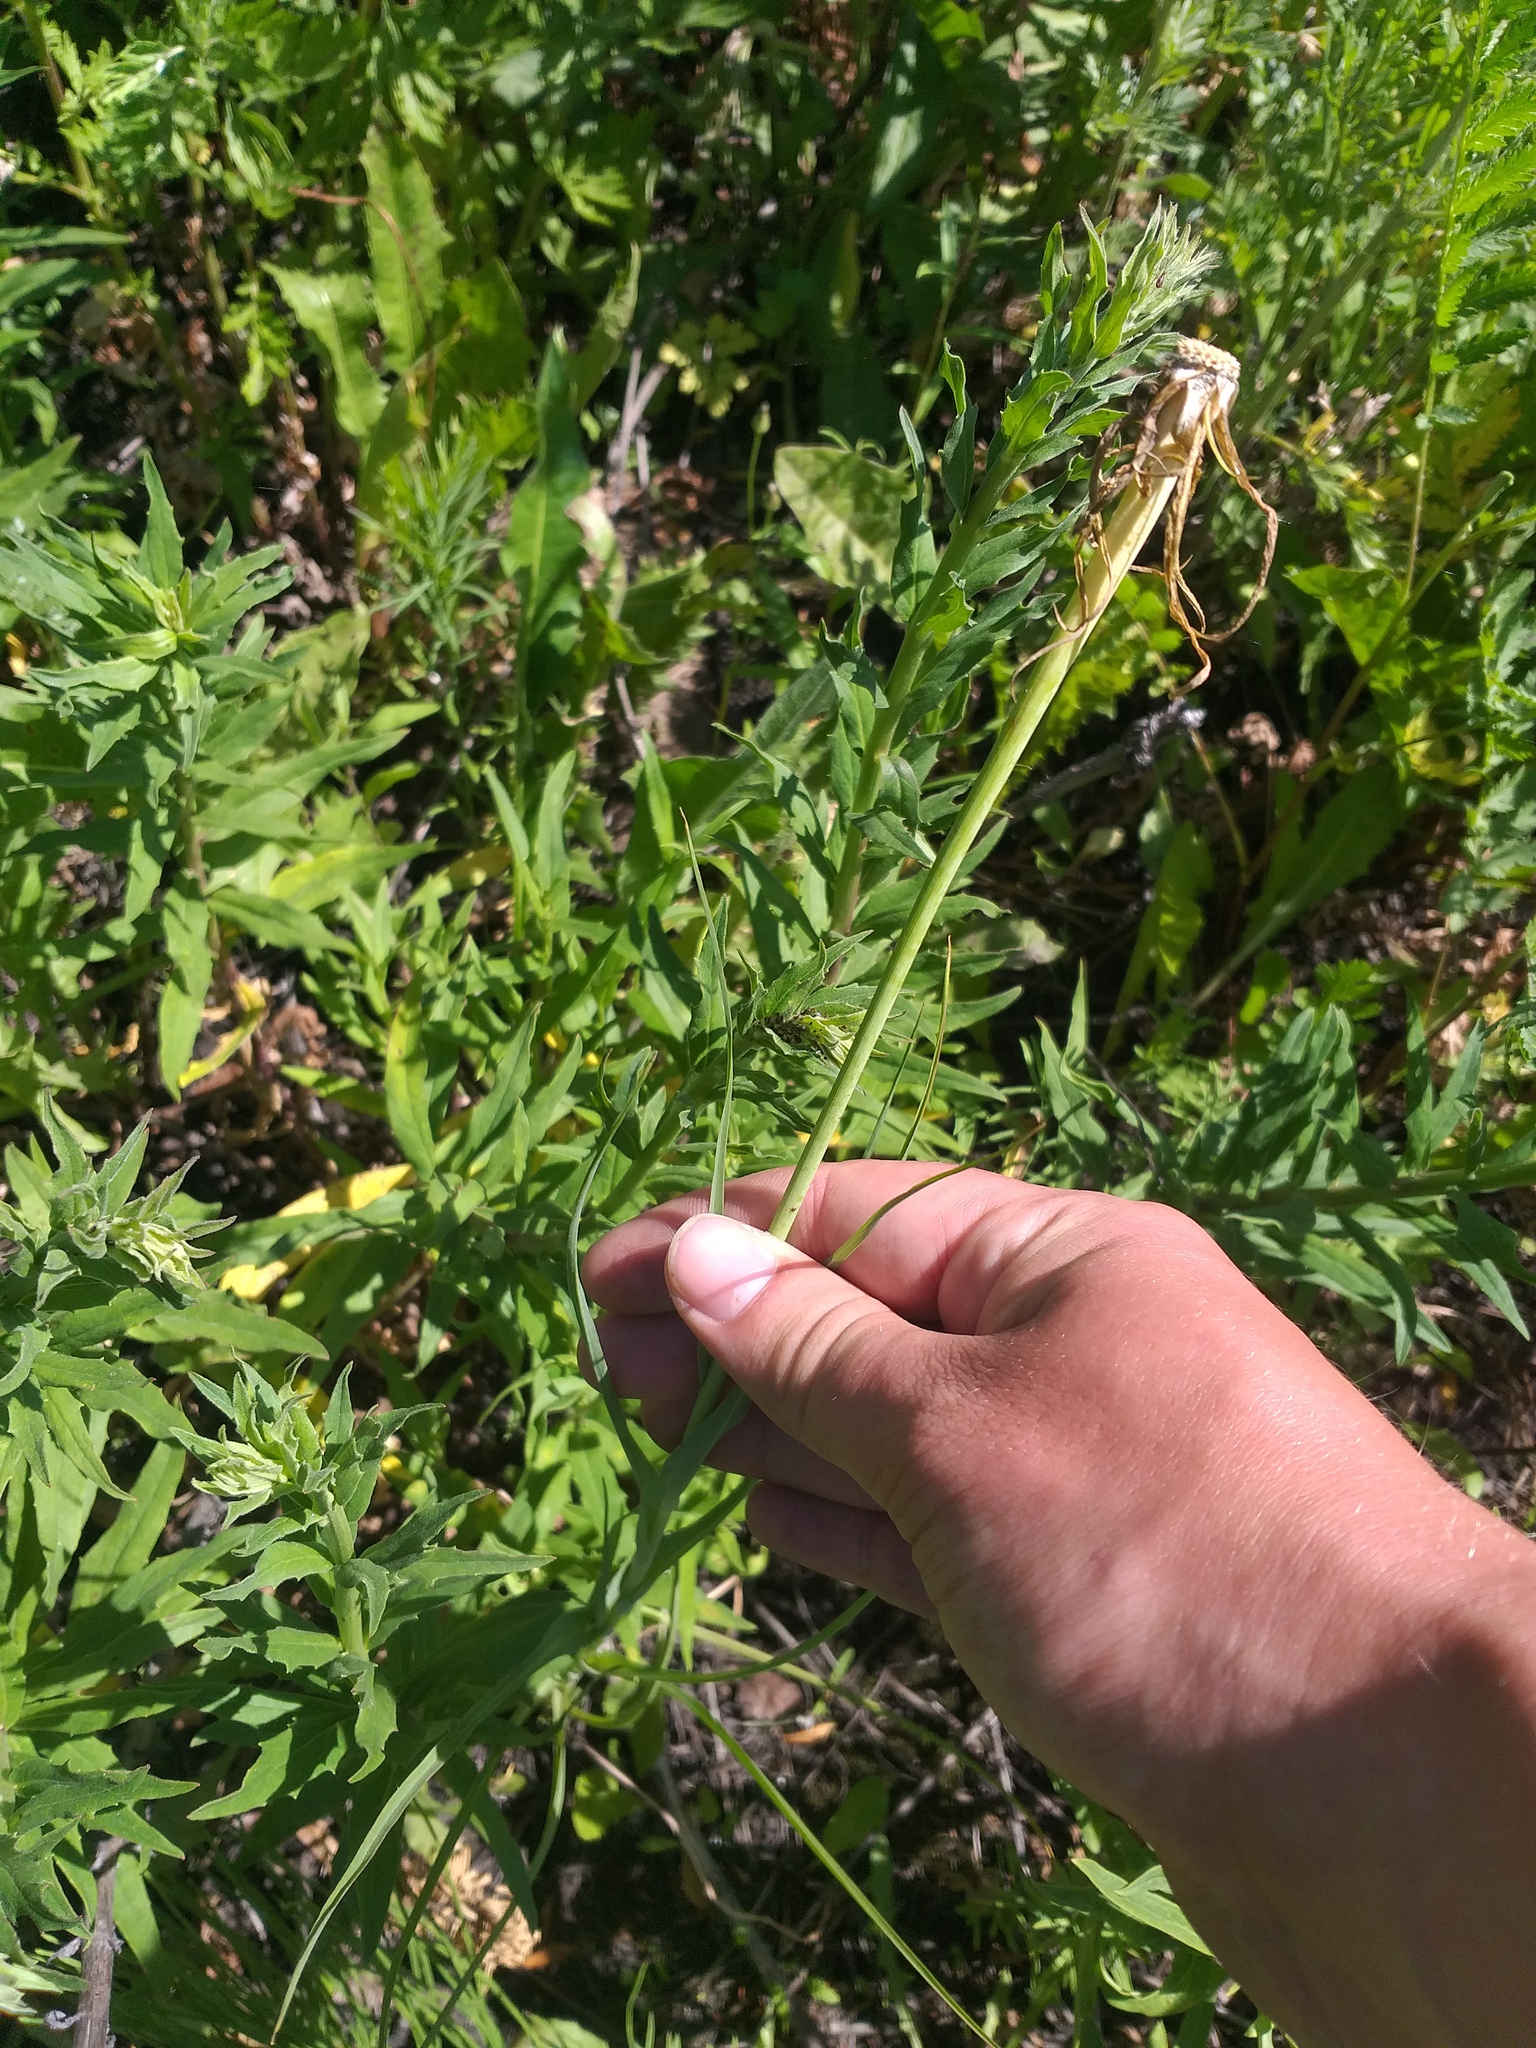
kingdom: Plantae
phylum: Tracheophyta
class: Magnoliopsida
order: Asterales
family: Asteraceae
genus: Tragopogon
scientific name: Tragopogon dubius
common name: Yellow salsify
